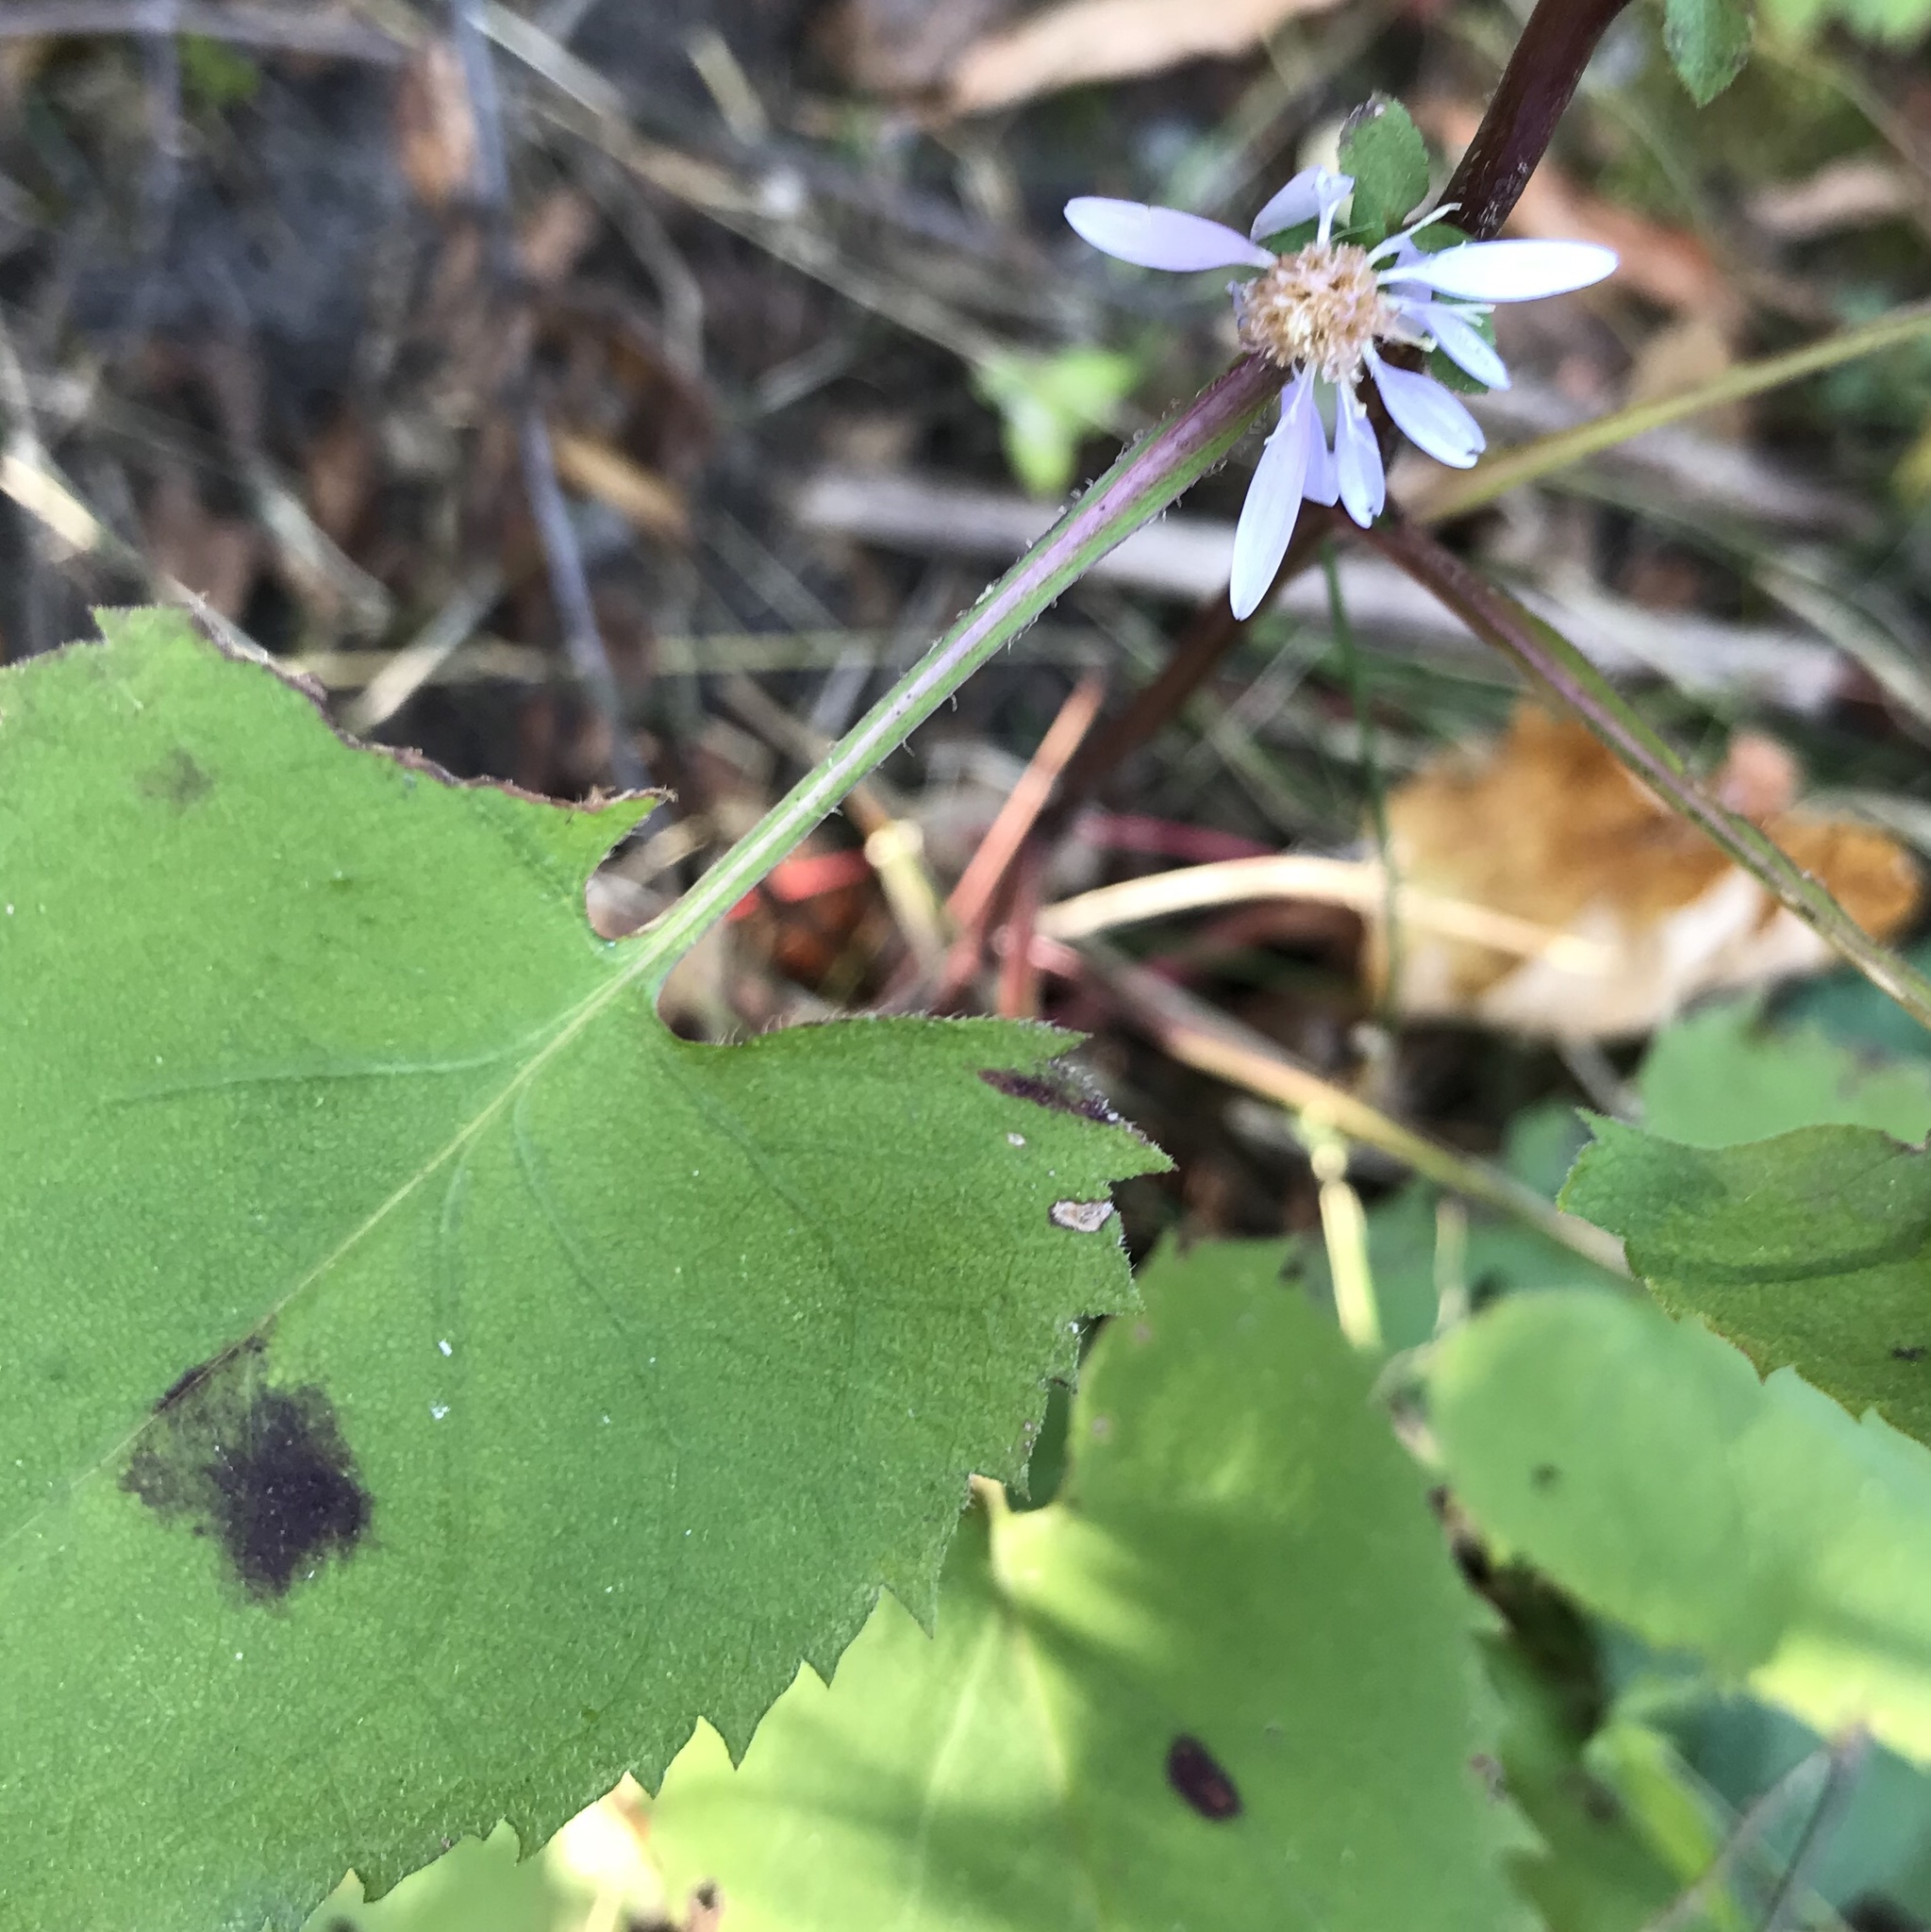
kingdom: Plantae
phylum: Tracheophyta
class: Magnoliopsida
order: Asterales
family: Asteraceae
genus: Symphyotrichum
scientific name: Symphyotrichum cordifolium
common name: Beeweed
